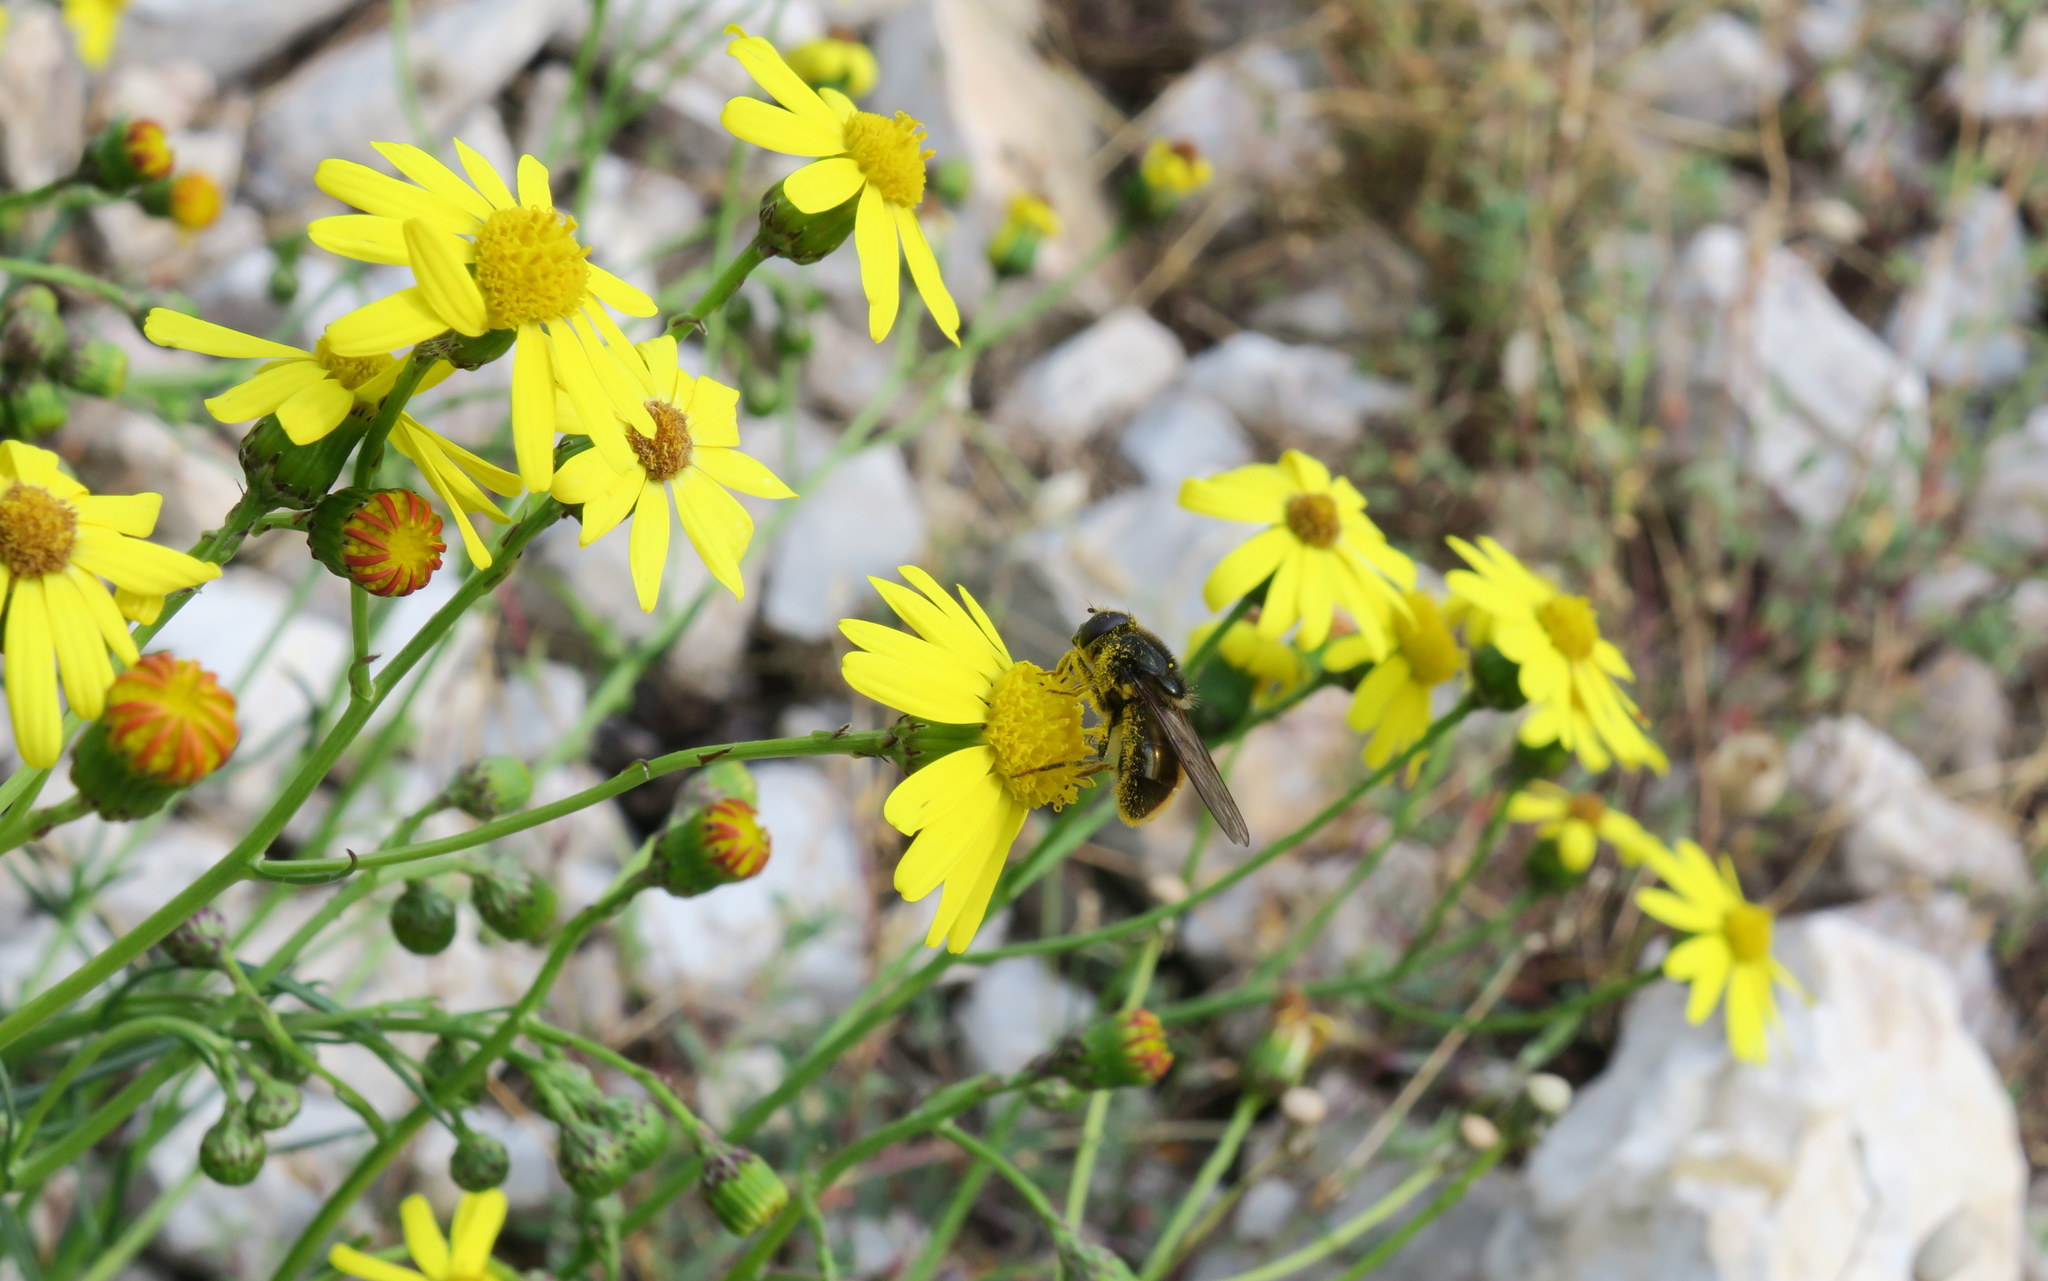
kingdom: Animalia
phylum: Arthropoda
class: Insecta
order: Diptera
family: Syrphidae
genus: Cheilosia
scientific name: Cheilosia himantopus
